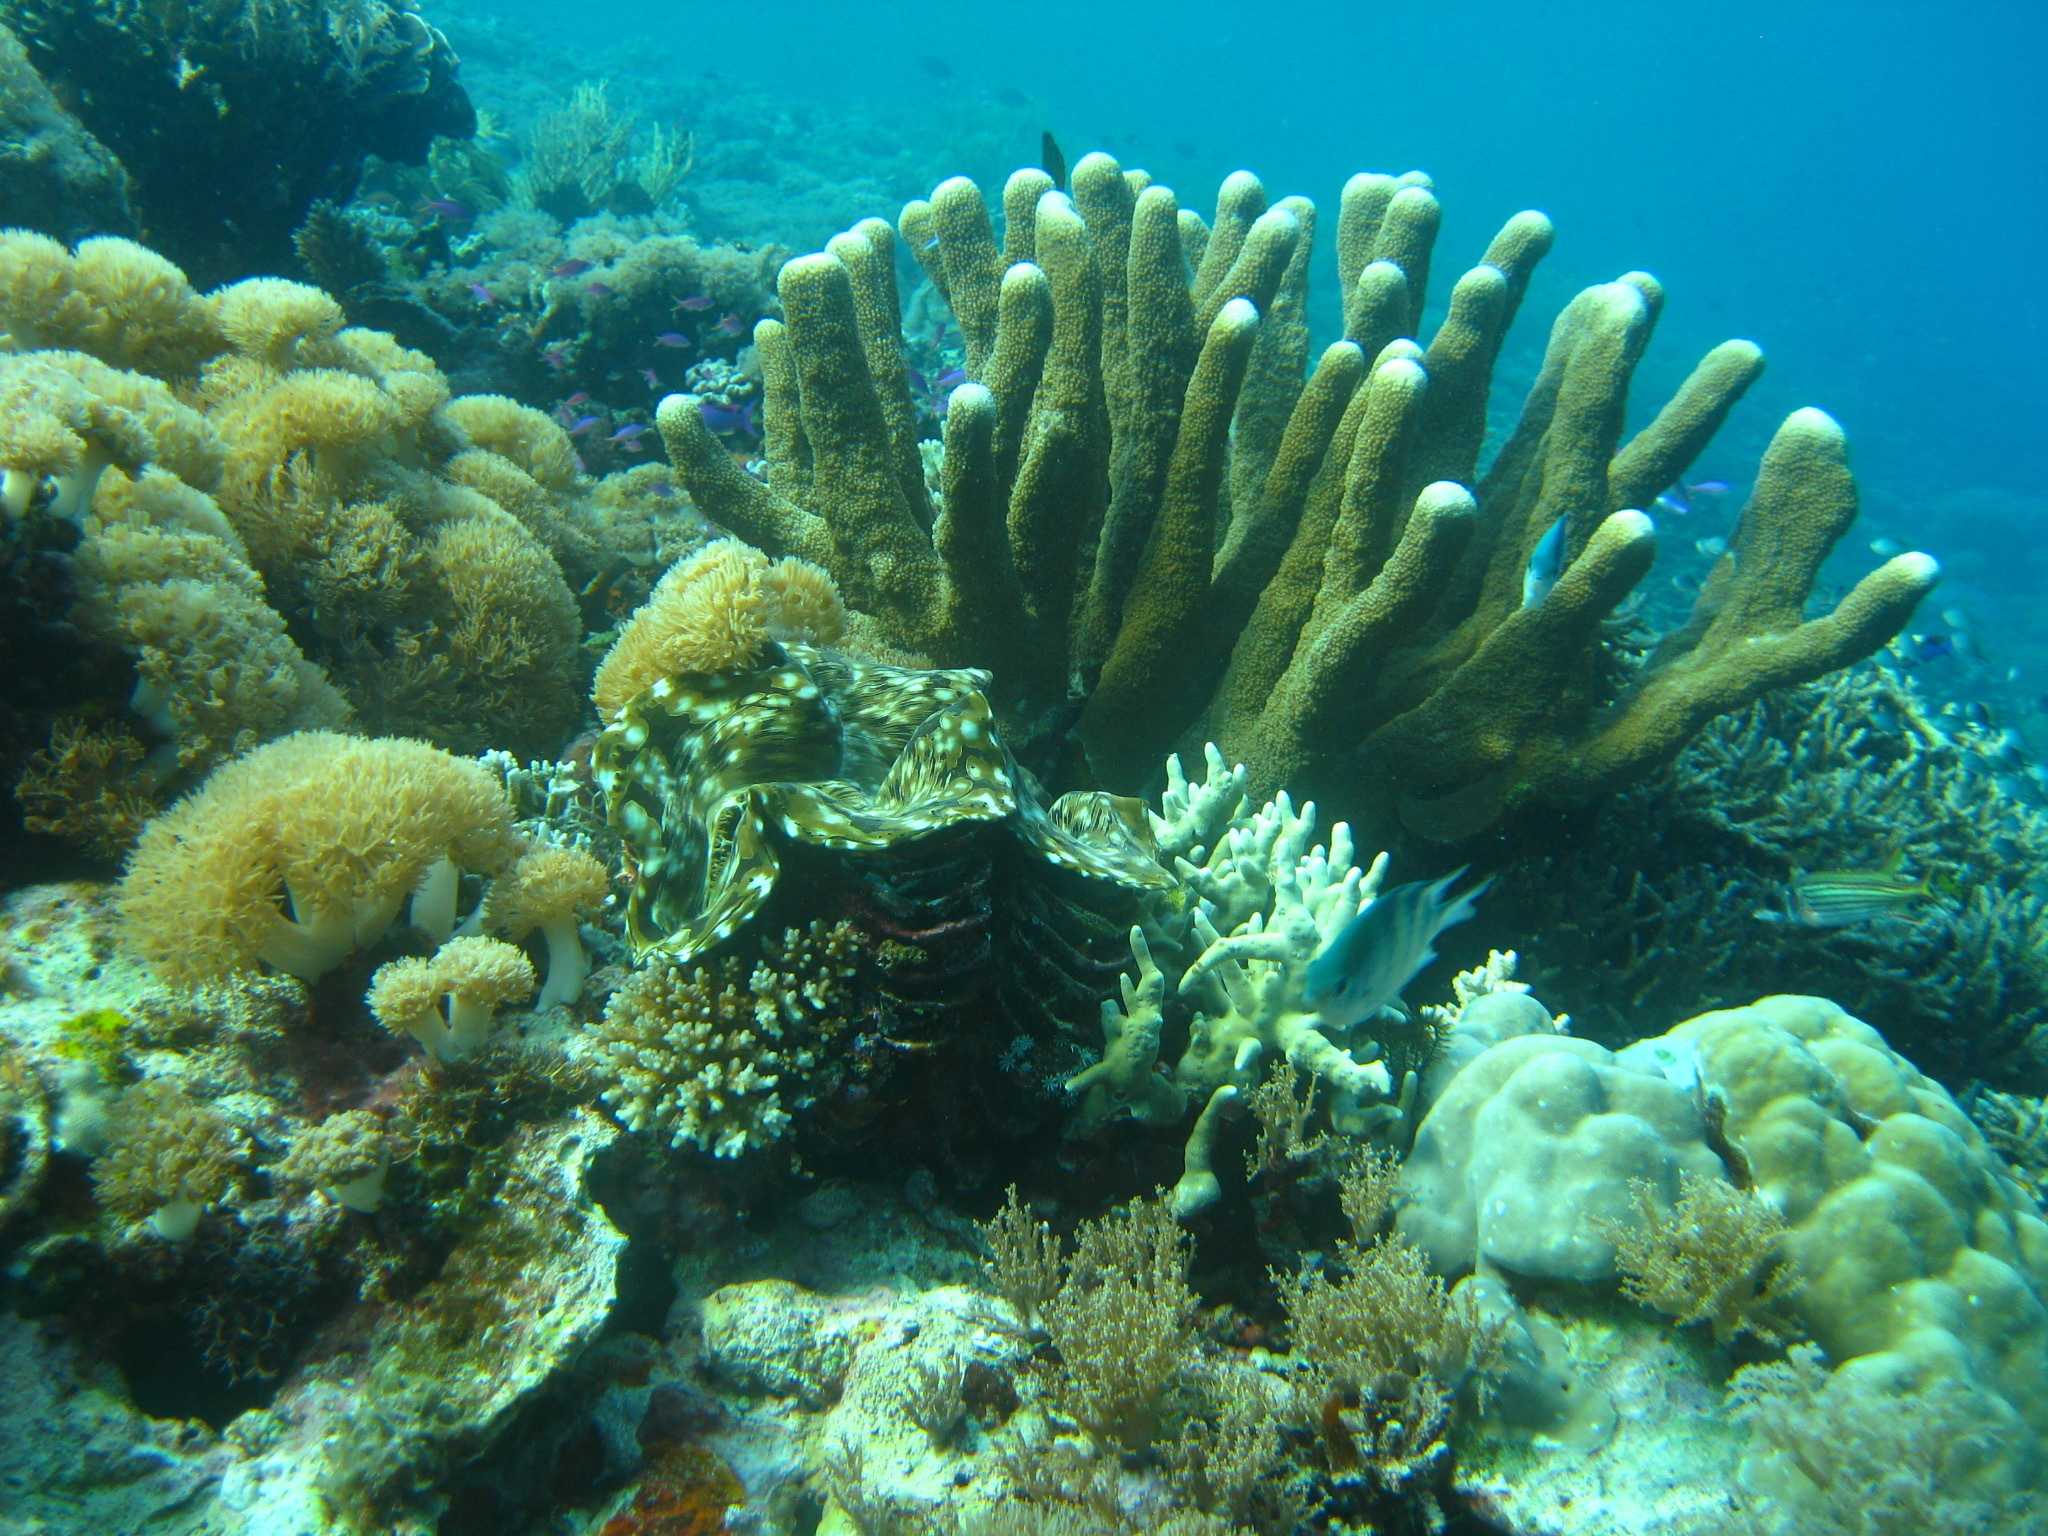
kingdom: Animalia
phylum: Mollusca
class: Bivalvia
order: Cardiida
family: Cardiidae
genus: Tridacna
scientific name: Tridacna squamosa
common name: Fluted clam
